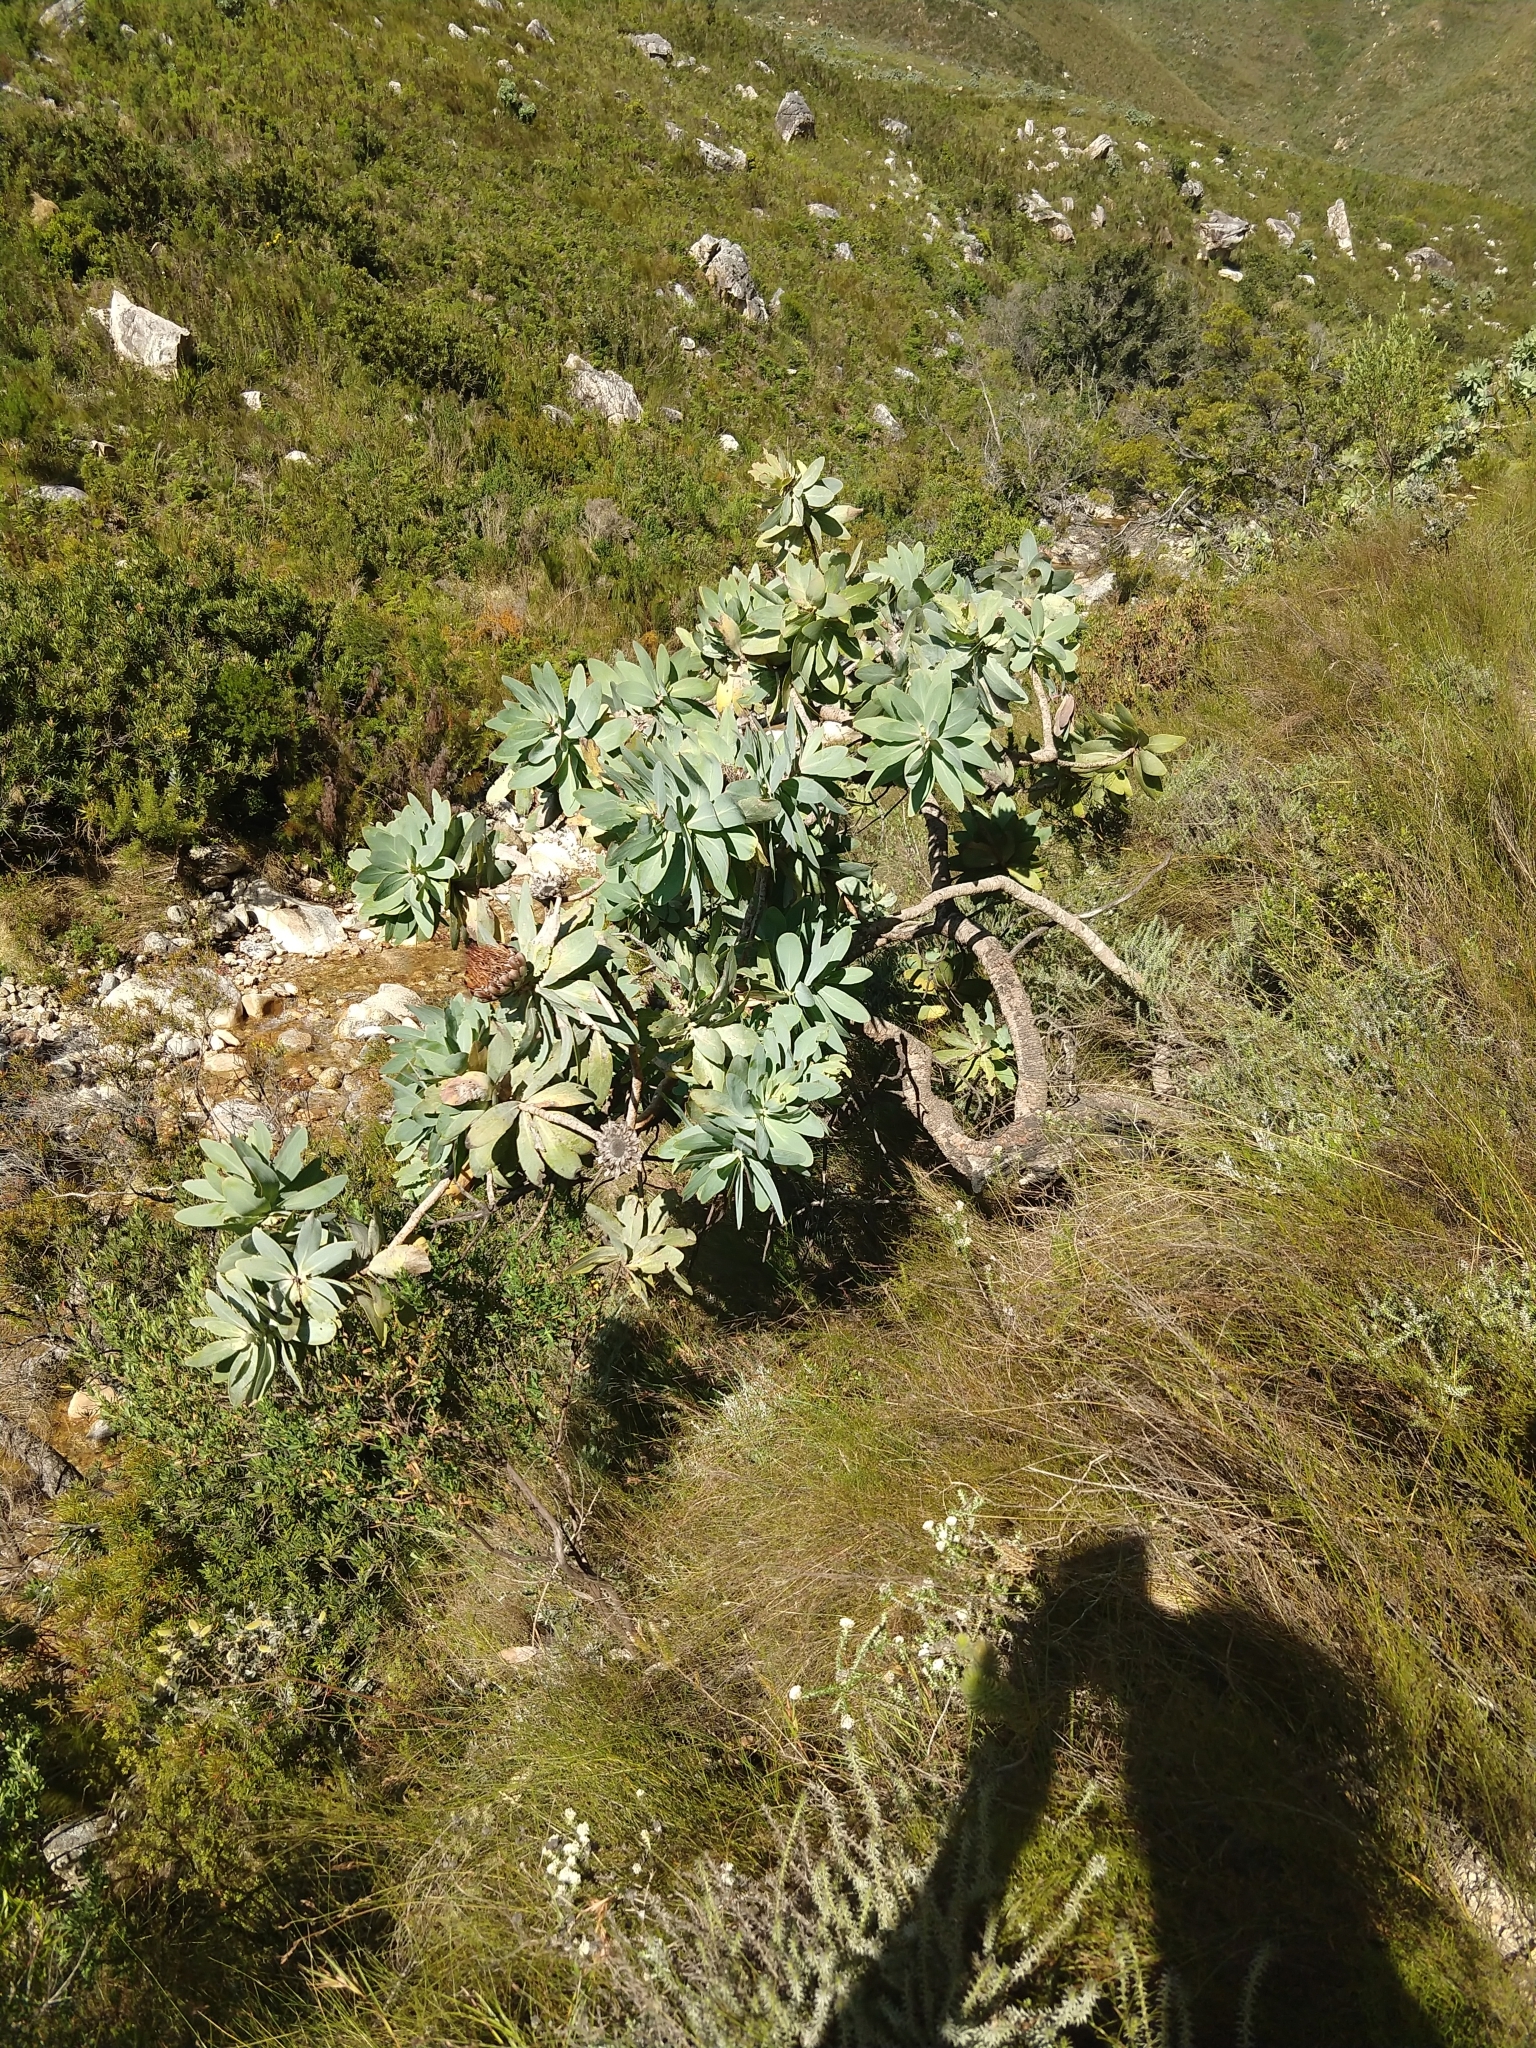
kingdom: Plantae
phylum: Tracheophyta
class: Magnoliopsida
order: Proteales
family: Proteaceae
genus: Protea
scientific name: Protea nitida
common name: Tree protea
